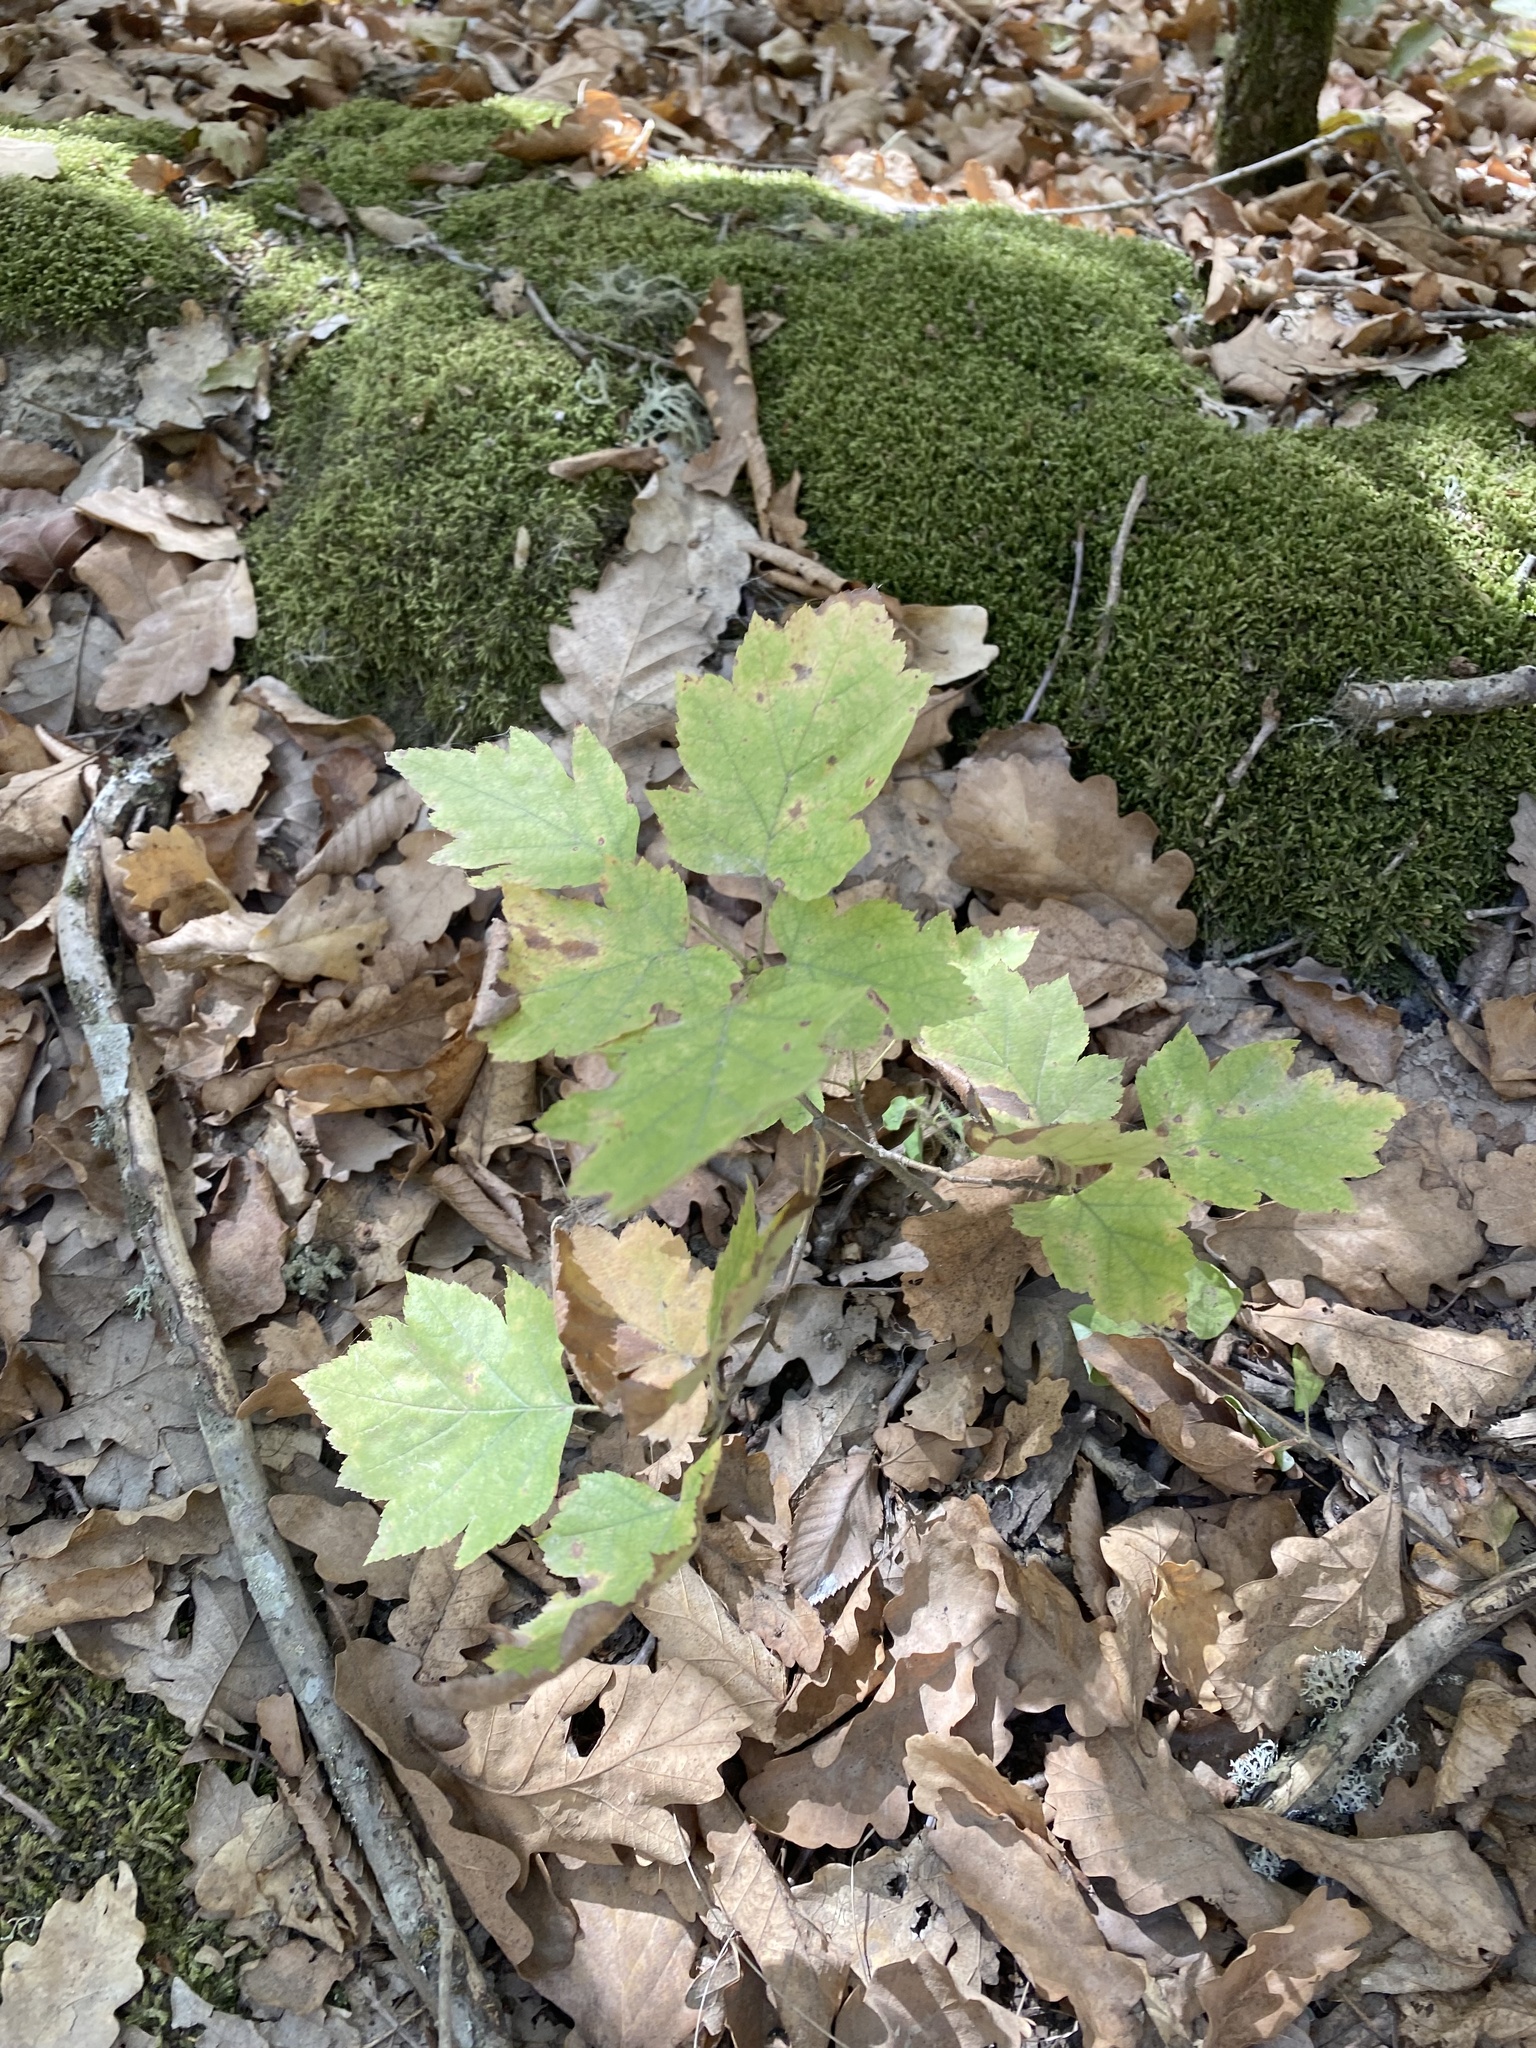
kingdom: Plantae
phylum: Tracheophyta
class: Magnoliopsida
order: Rosales
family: Rosaceae
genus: Torminalis
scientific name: Torminalis glaberrima
